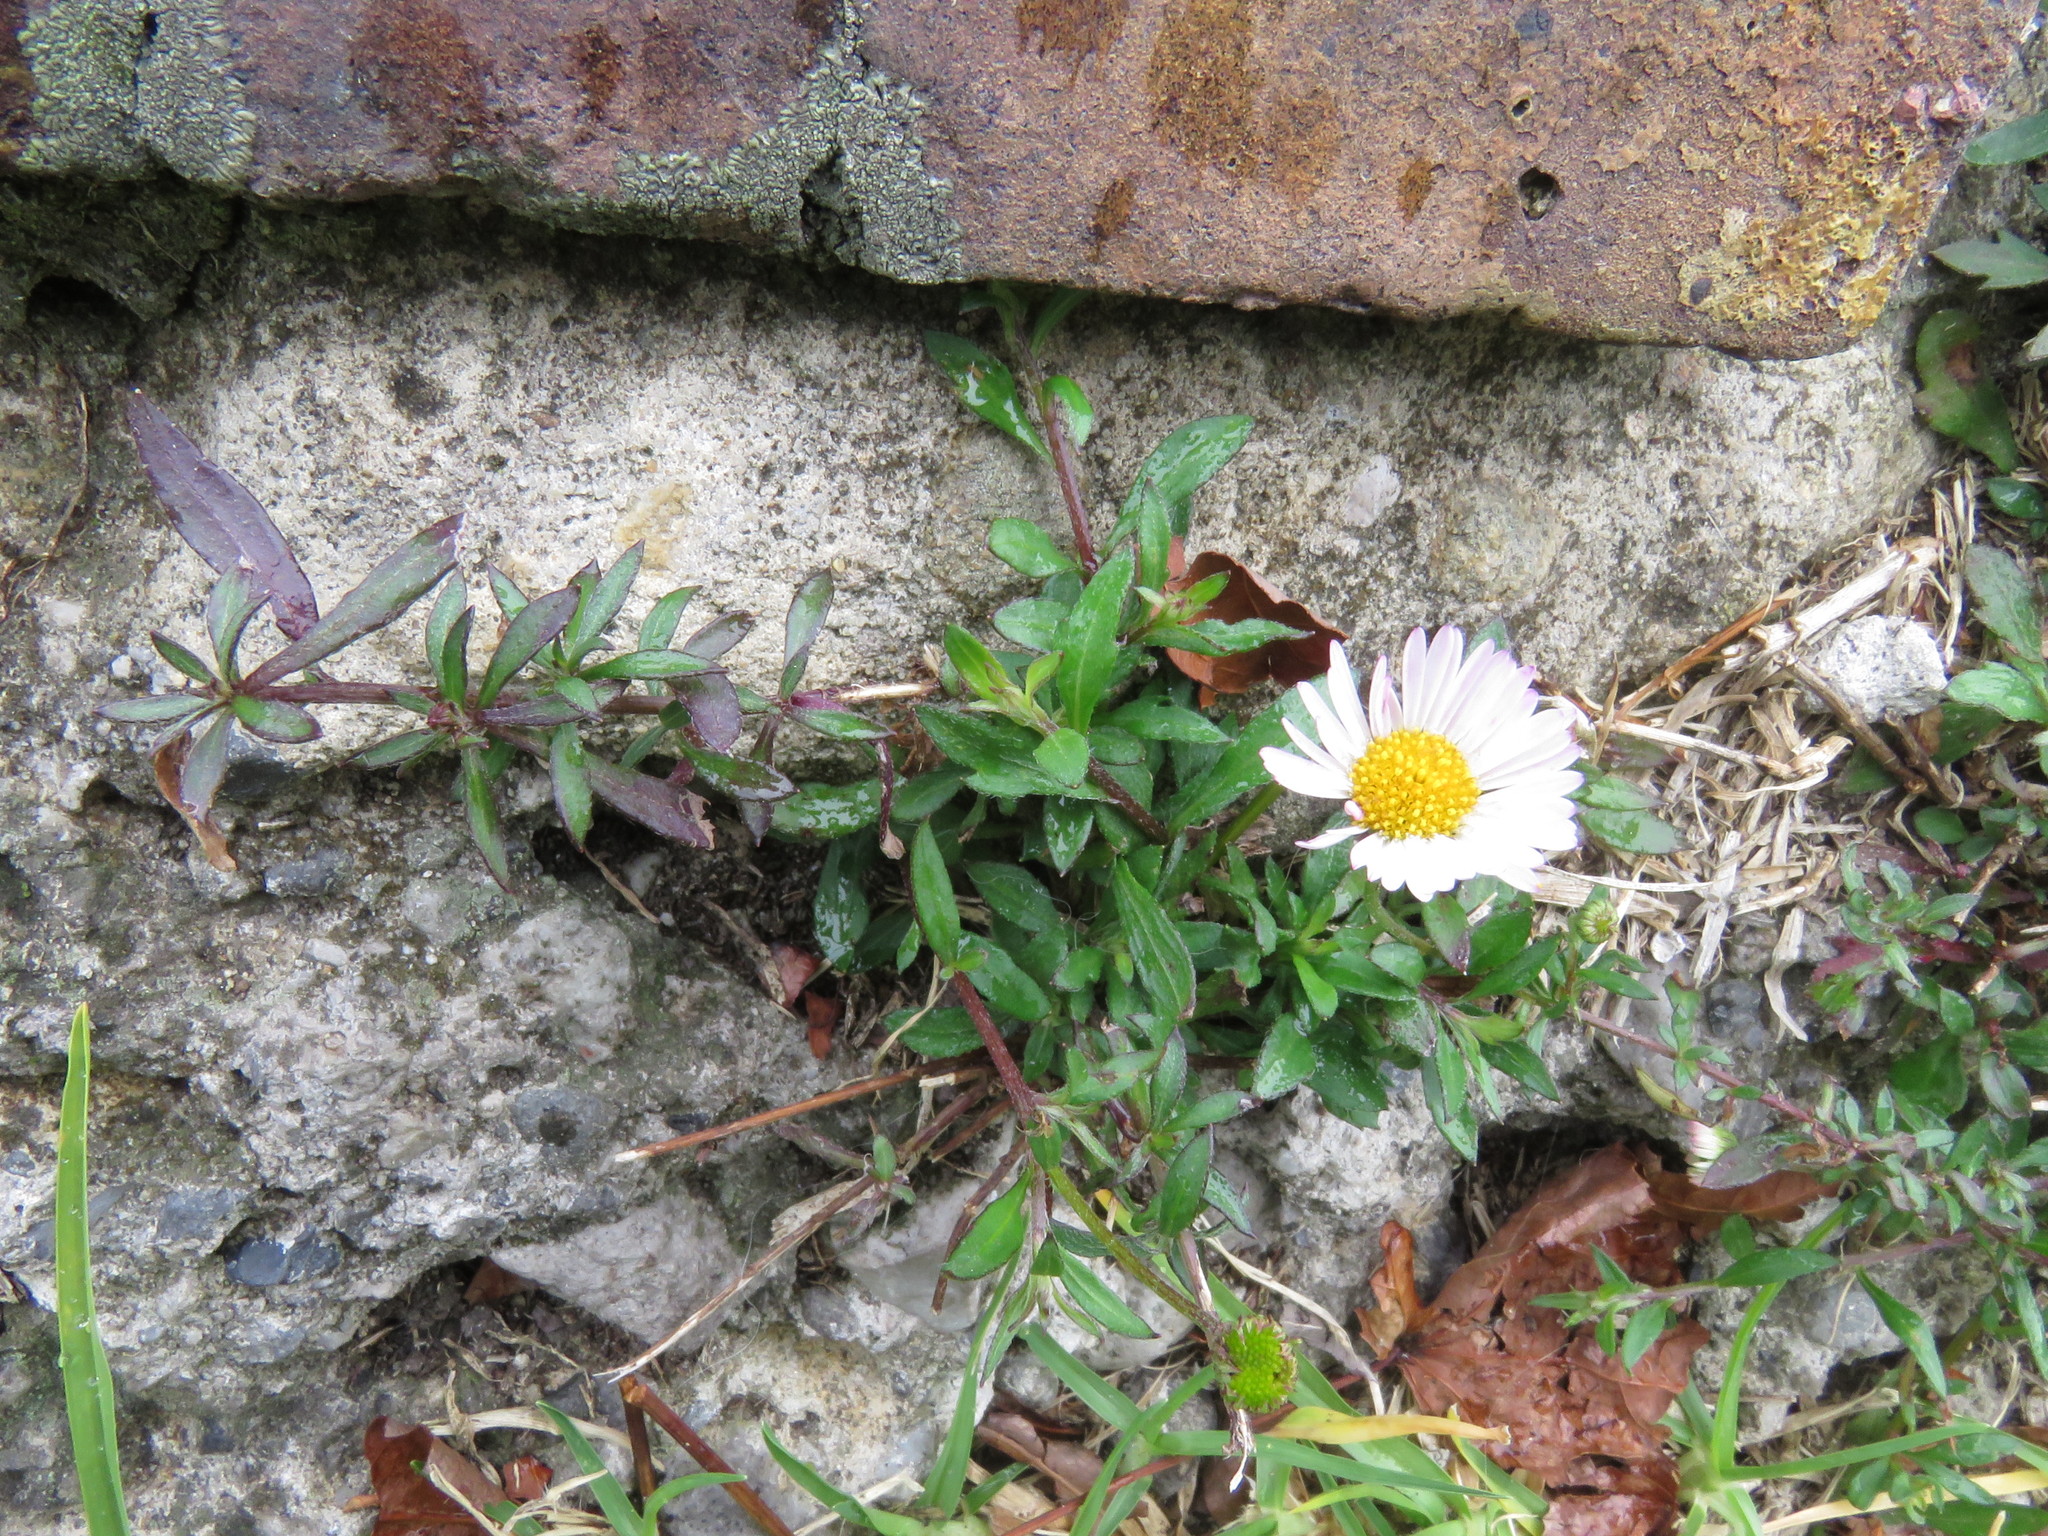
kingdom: Plantae
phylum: Tracheophyta
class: Magnoliopsida
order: Asterales
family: Asteraceae
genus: Erigeron
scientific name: Erigeron karvinskianus
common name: Mexican fleabane
